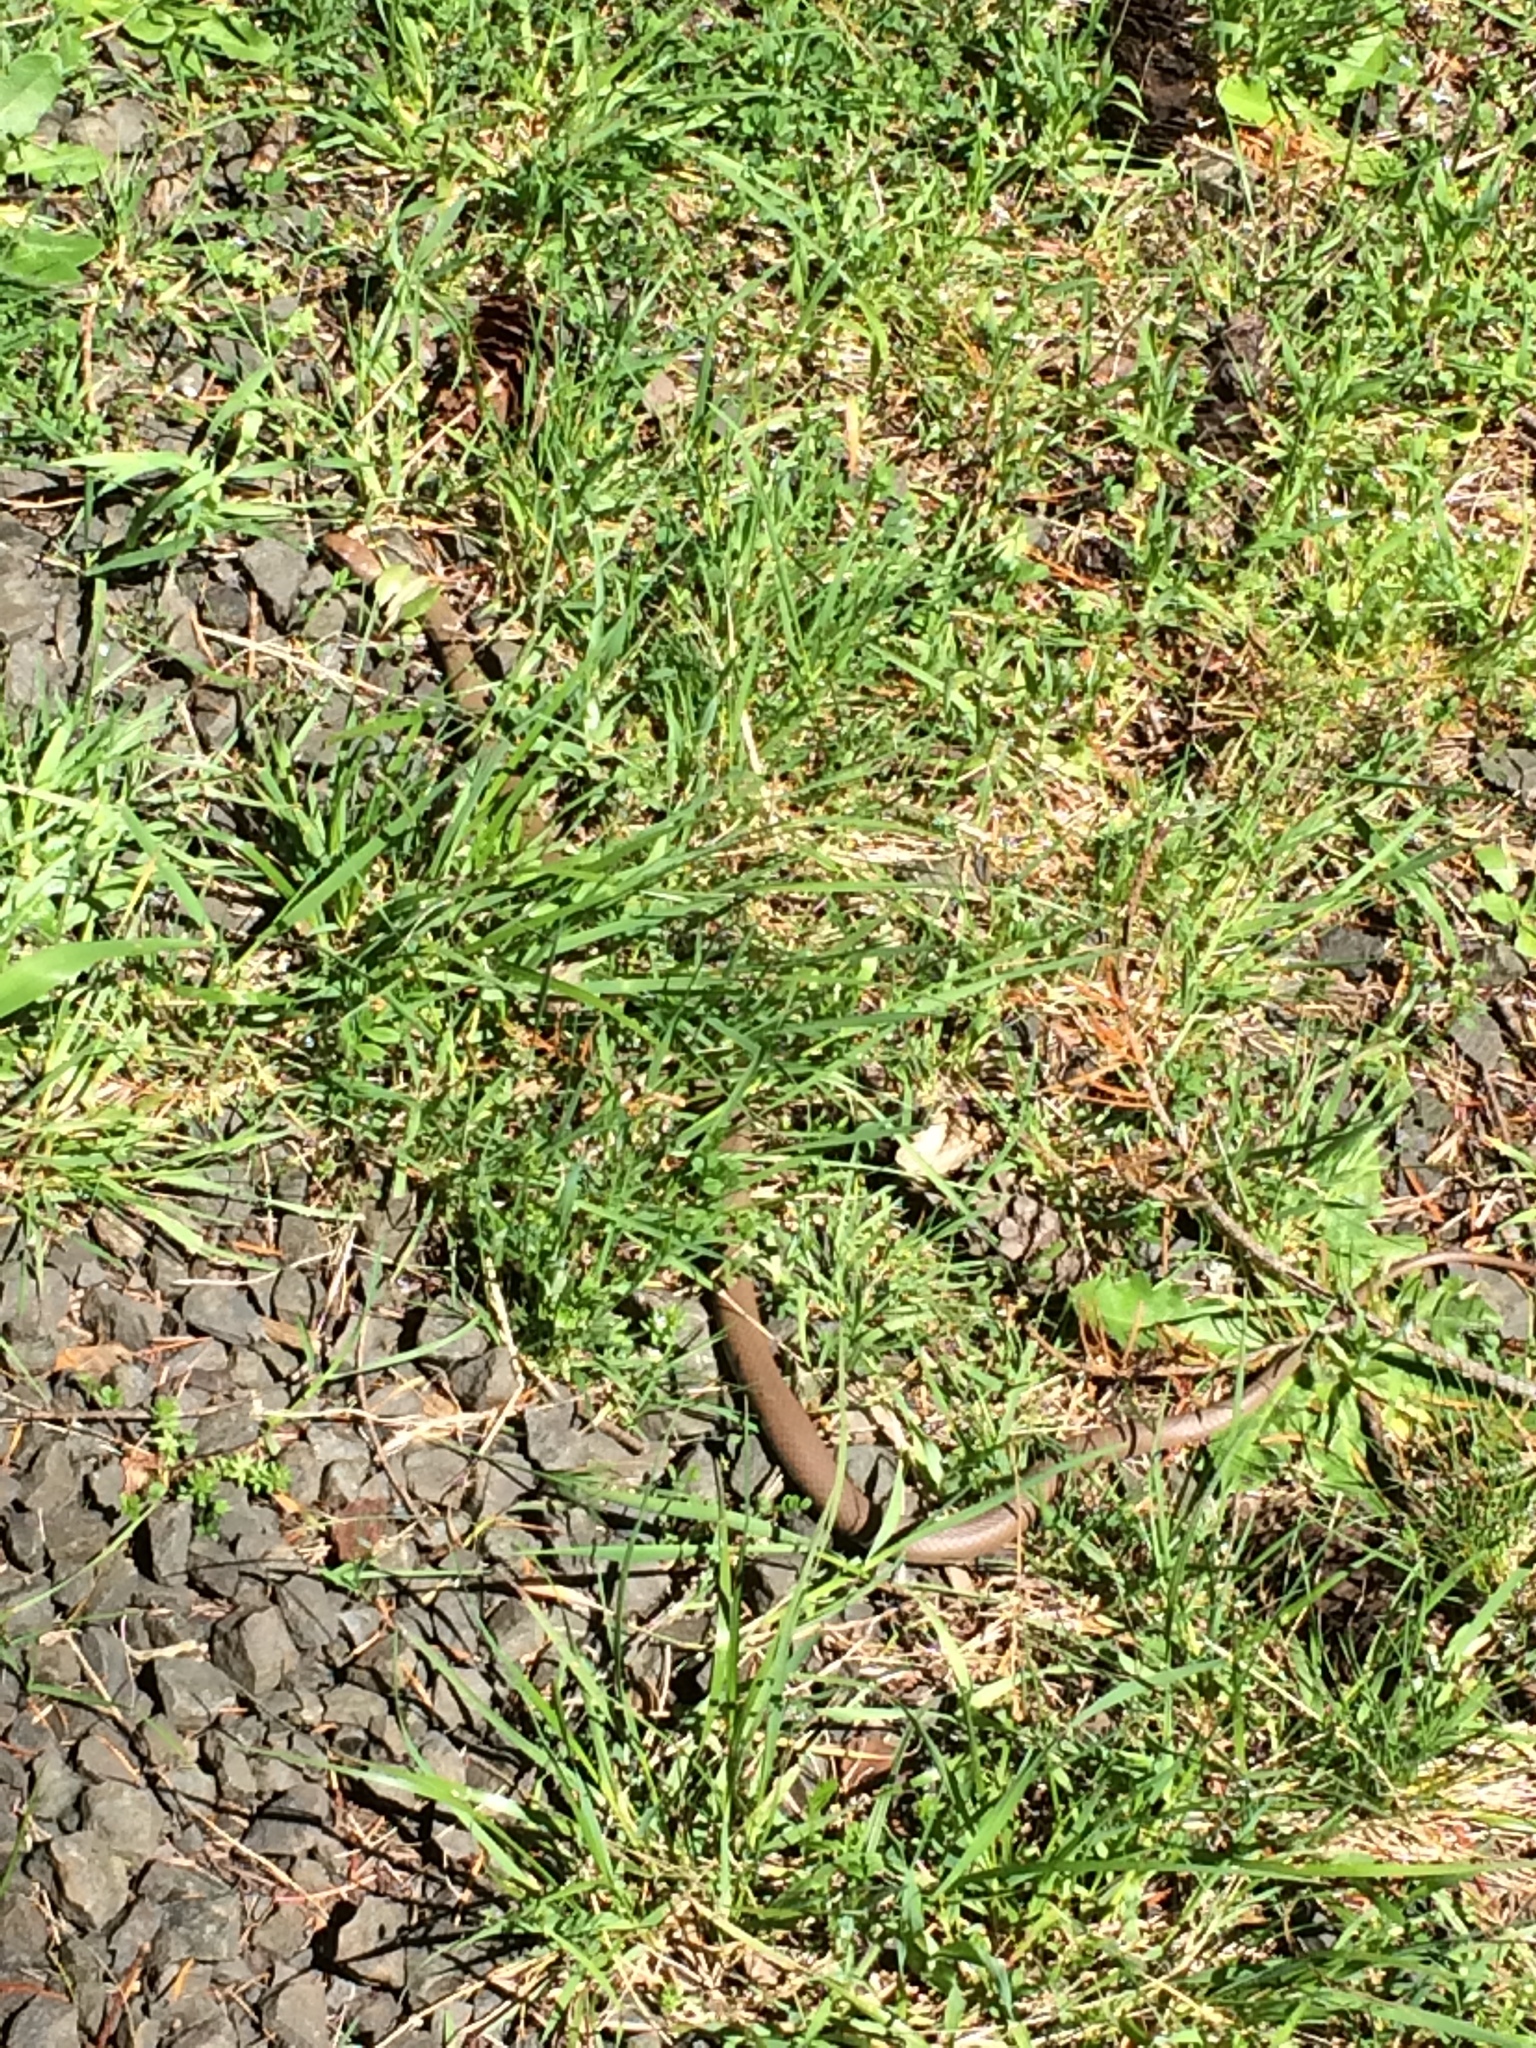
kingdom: Animalia
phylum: Chordata
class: Squamata
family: Colubridae
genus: Coluber
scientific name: Coluber constrictor
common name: Eastern racer
